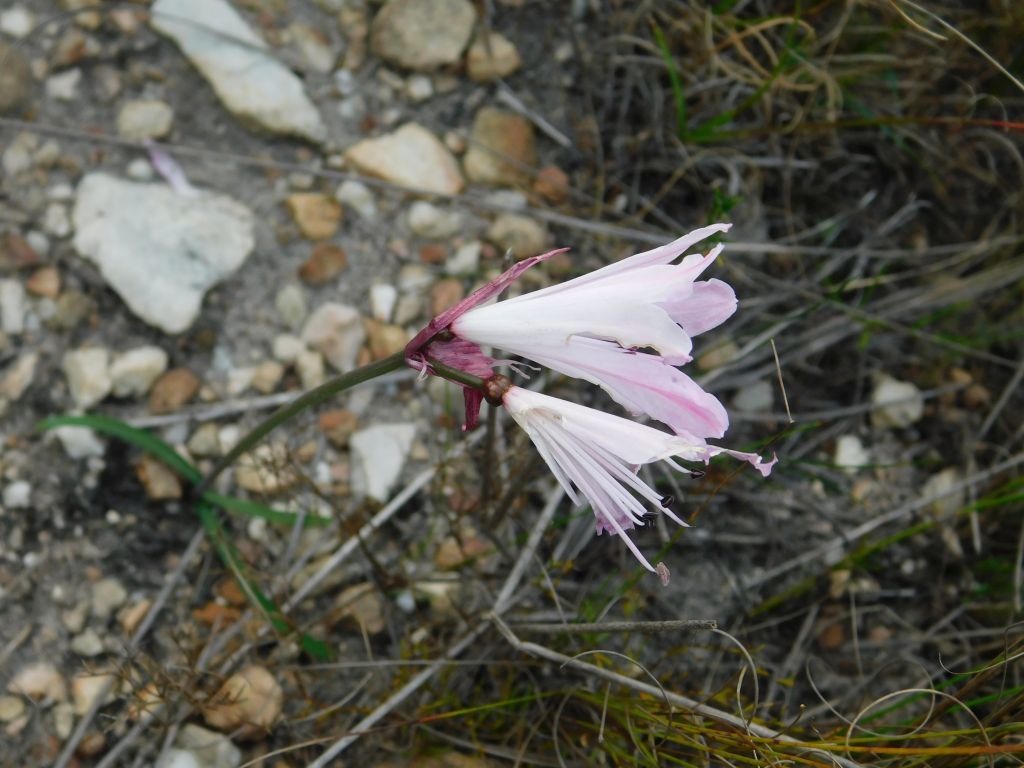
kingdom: Plantae
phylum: Tracheophyta
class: Liliopsida
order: Asparagales
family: Amaryllidaceae
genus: Nerine
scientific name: Nerine pudica
